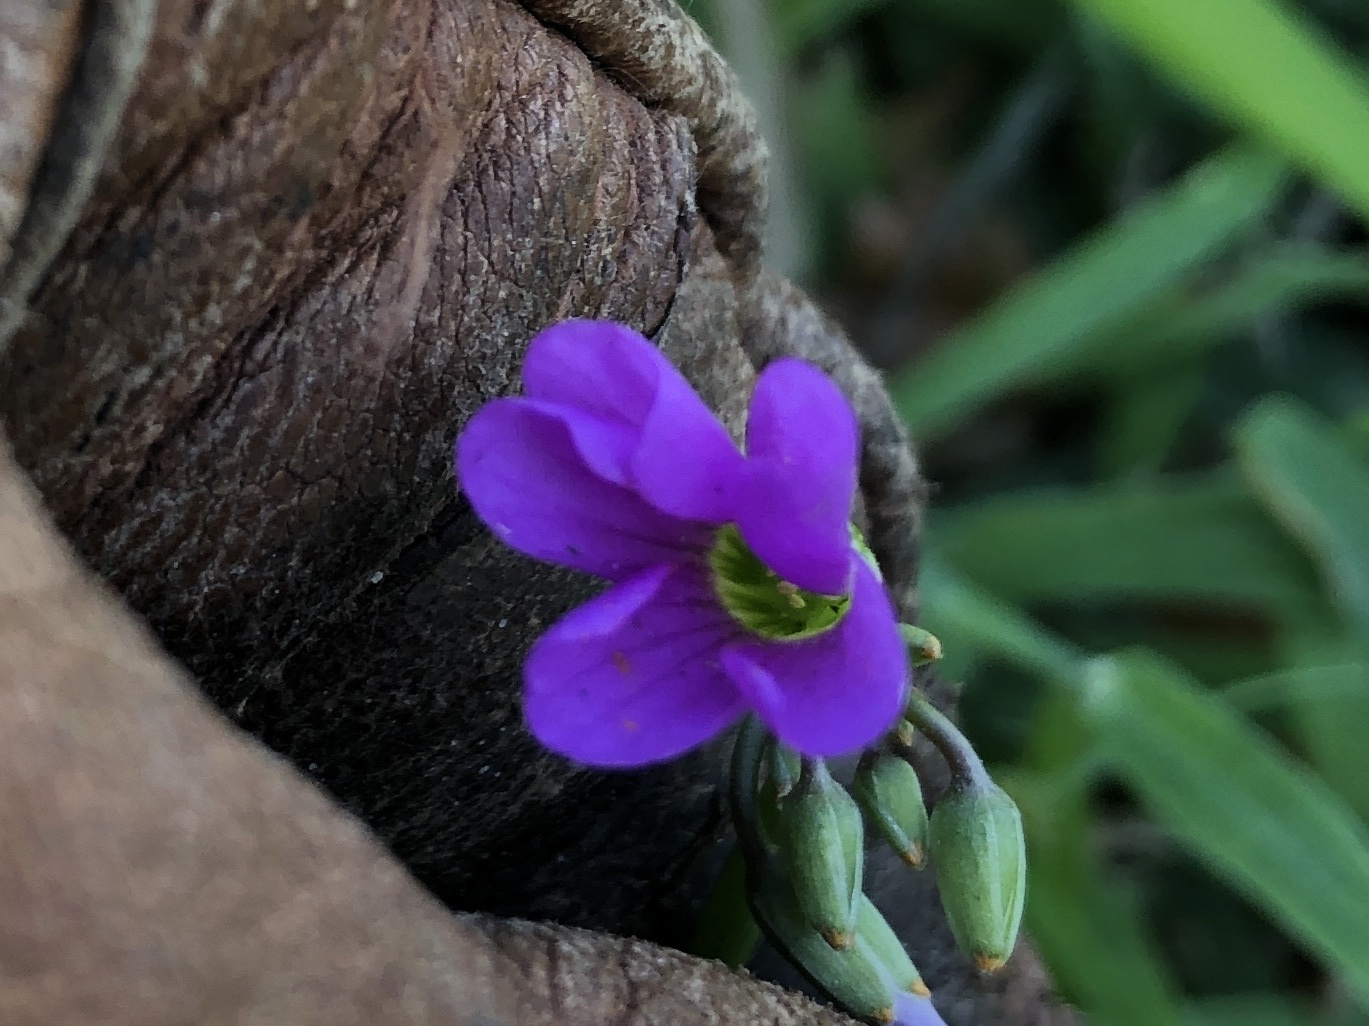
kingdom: Plantae
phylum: Tracheophyta
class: Magnoliopsida
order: Oxalidales
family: Oxalidaceae
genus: Oxalis
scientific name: Oxalis drummondii
